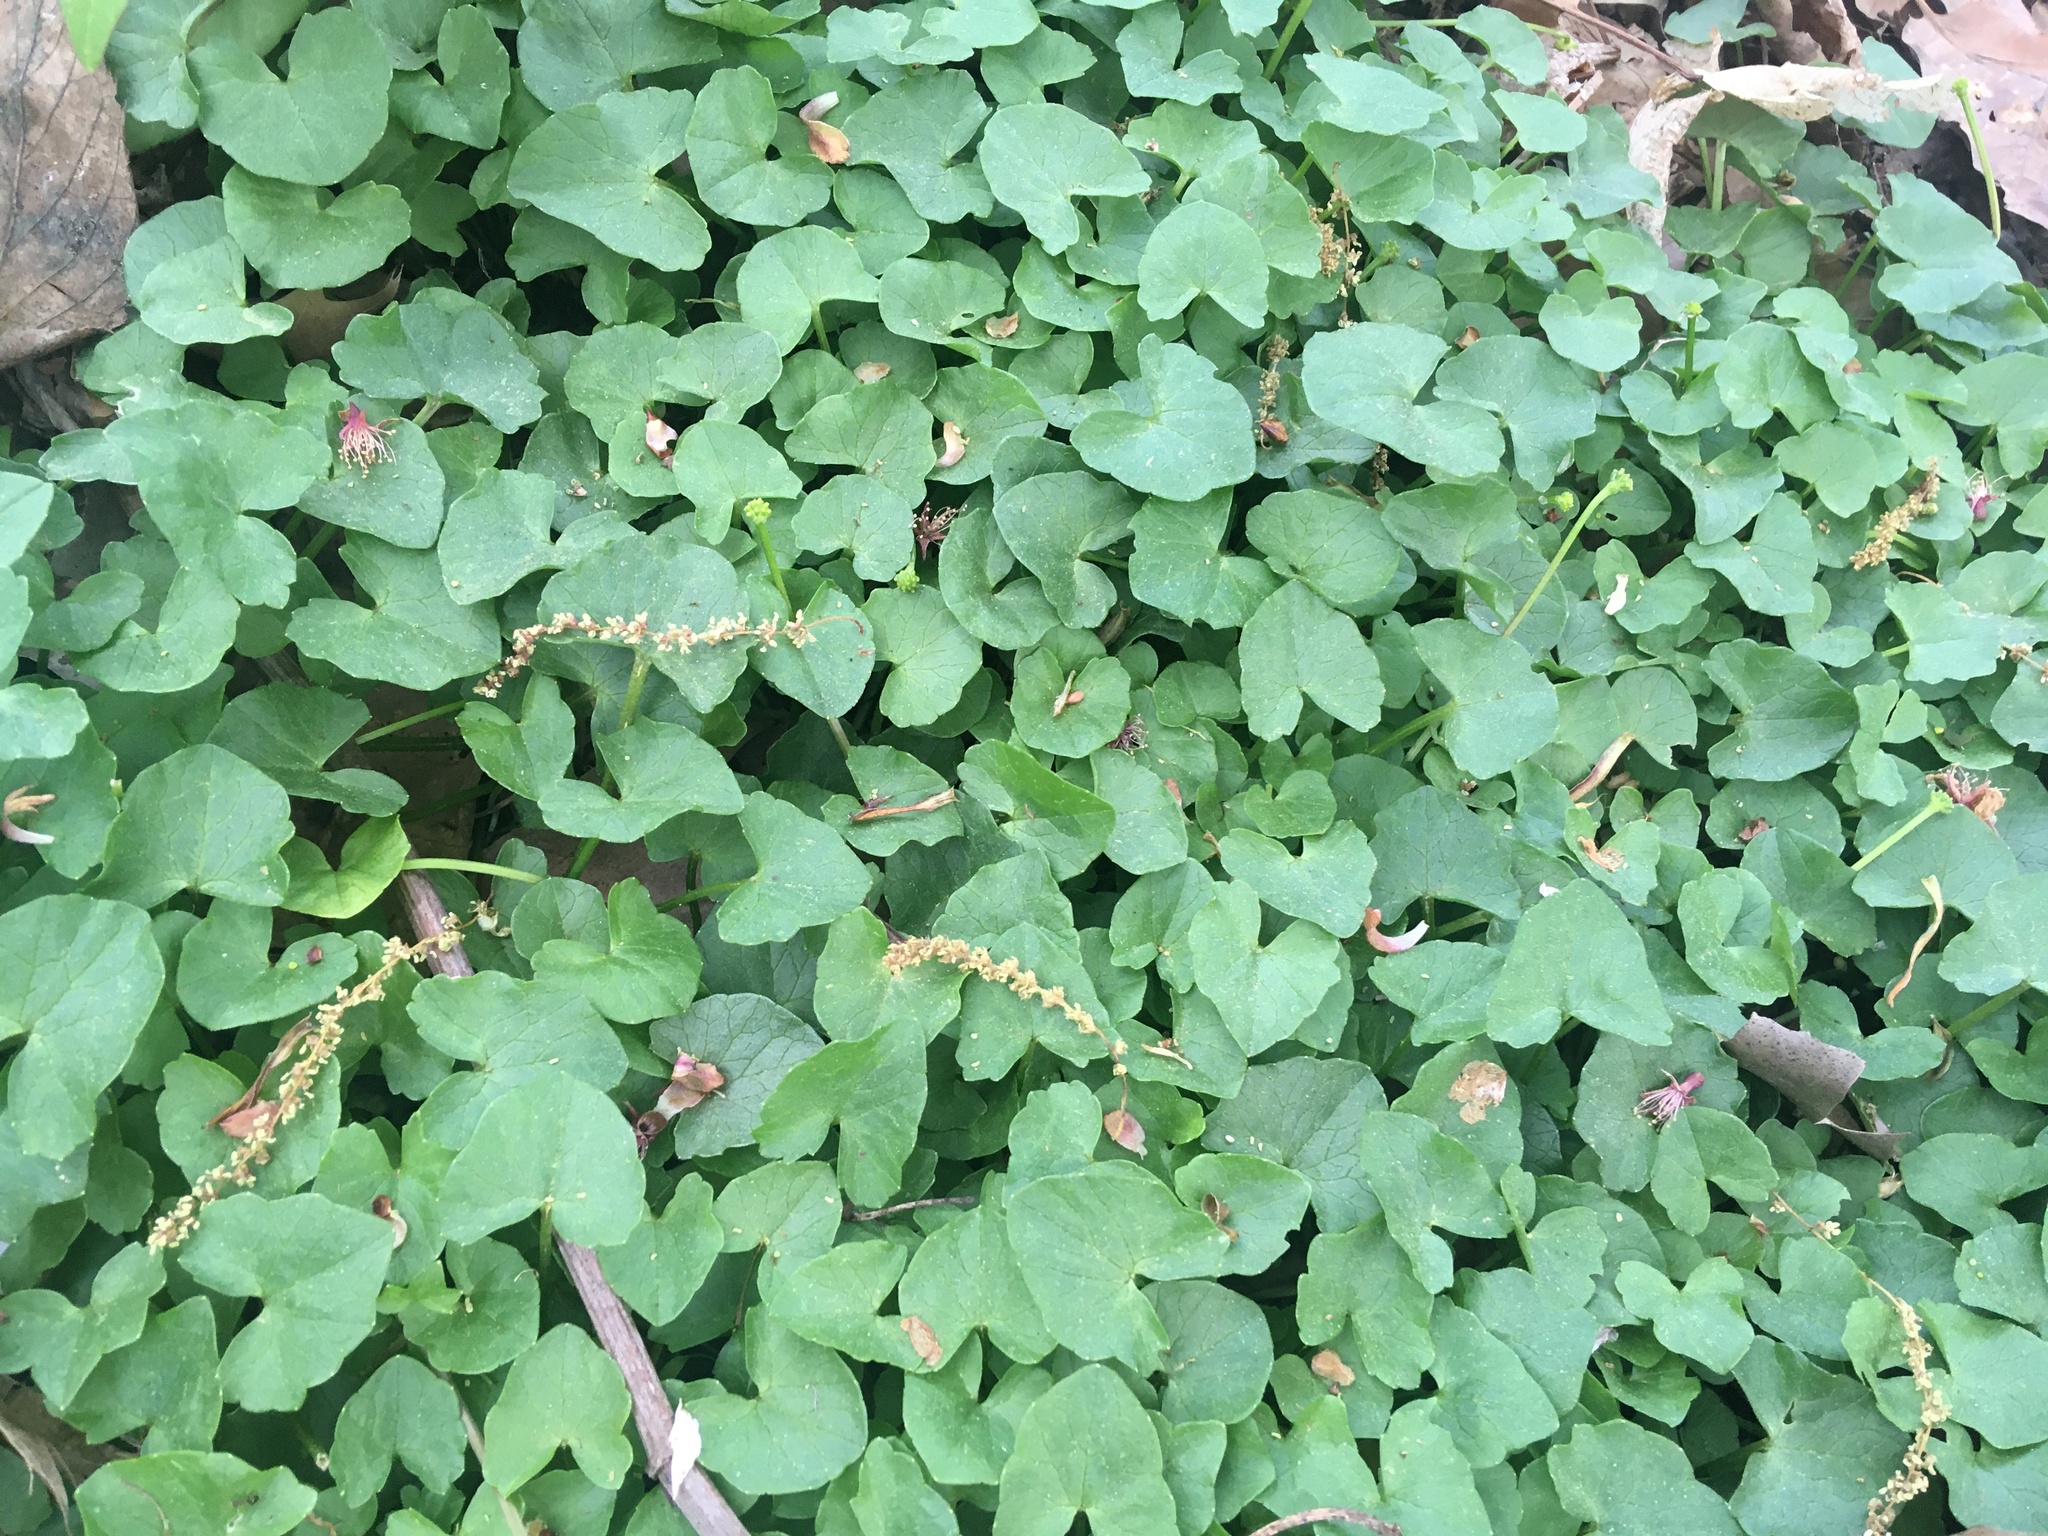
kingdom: Plantae
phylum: Tracheophyta
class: Magnoliopsida
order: Ranunculales
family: Ranunculaceae
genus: Ficaria
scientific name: Ficaria verna
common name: Lesser celandine
